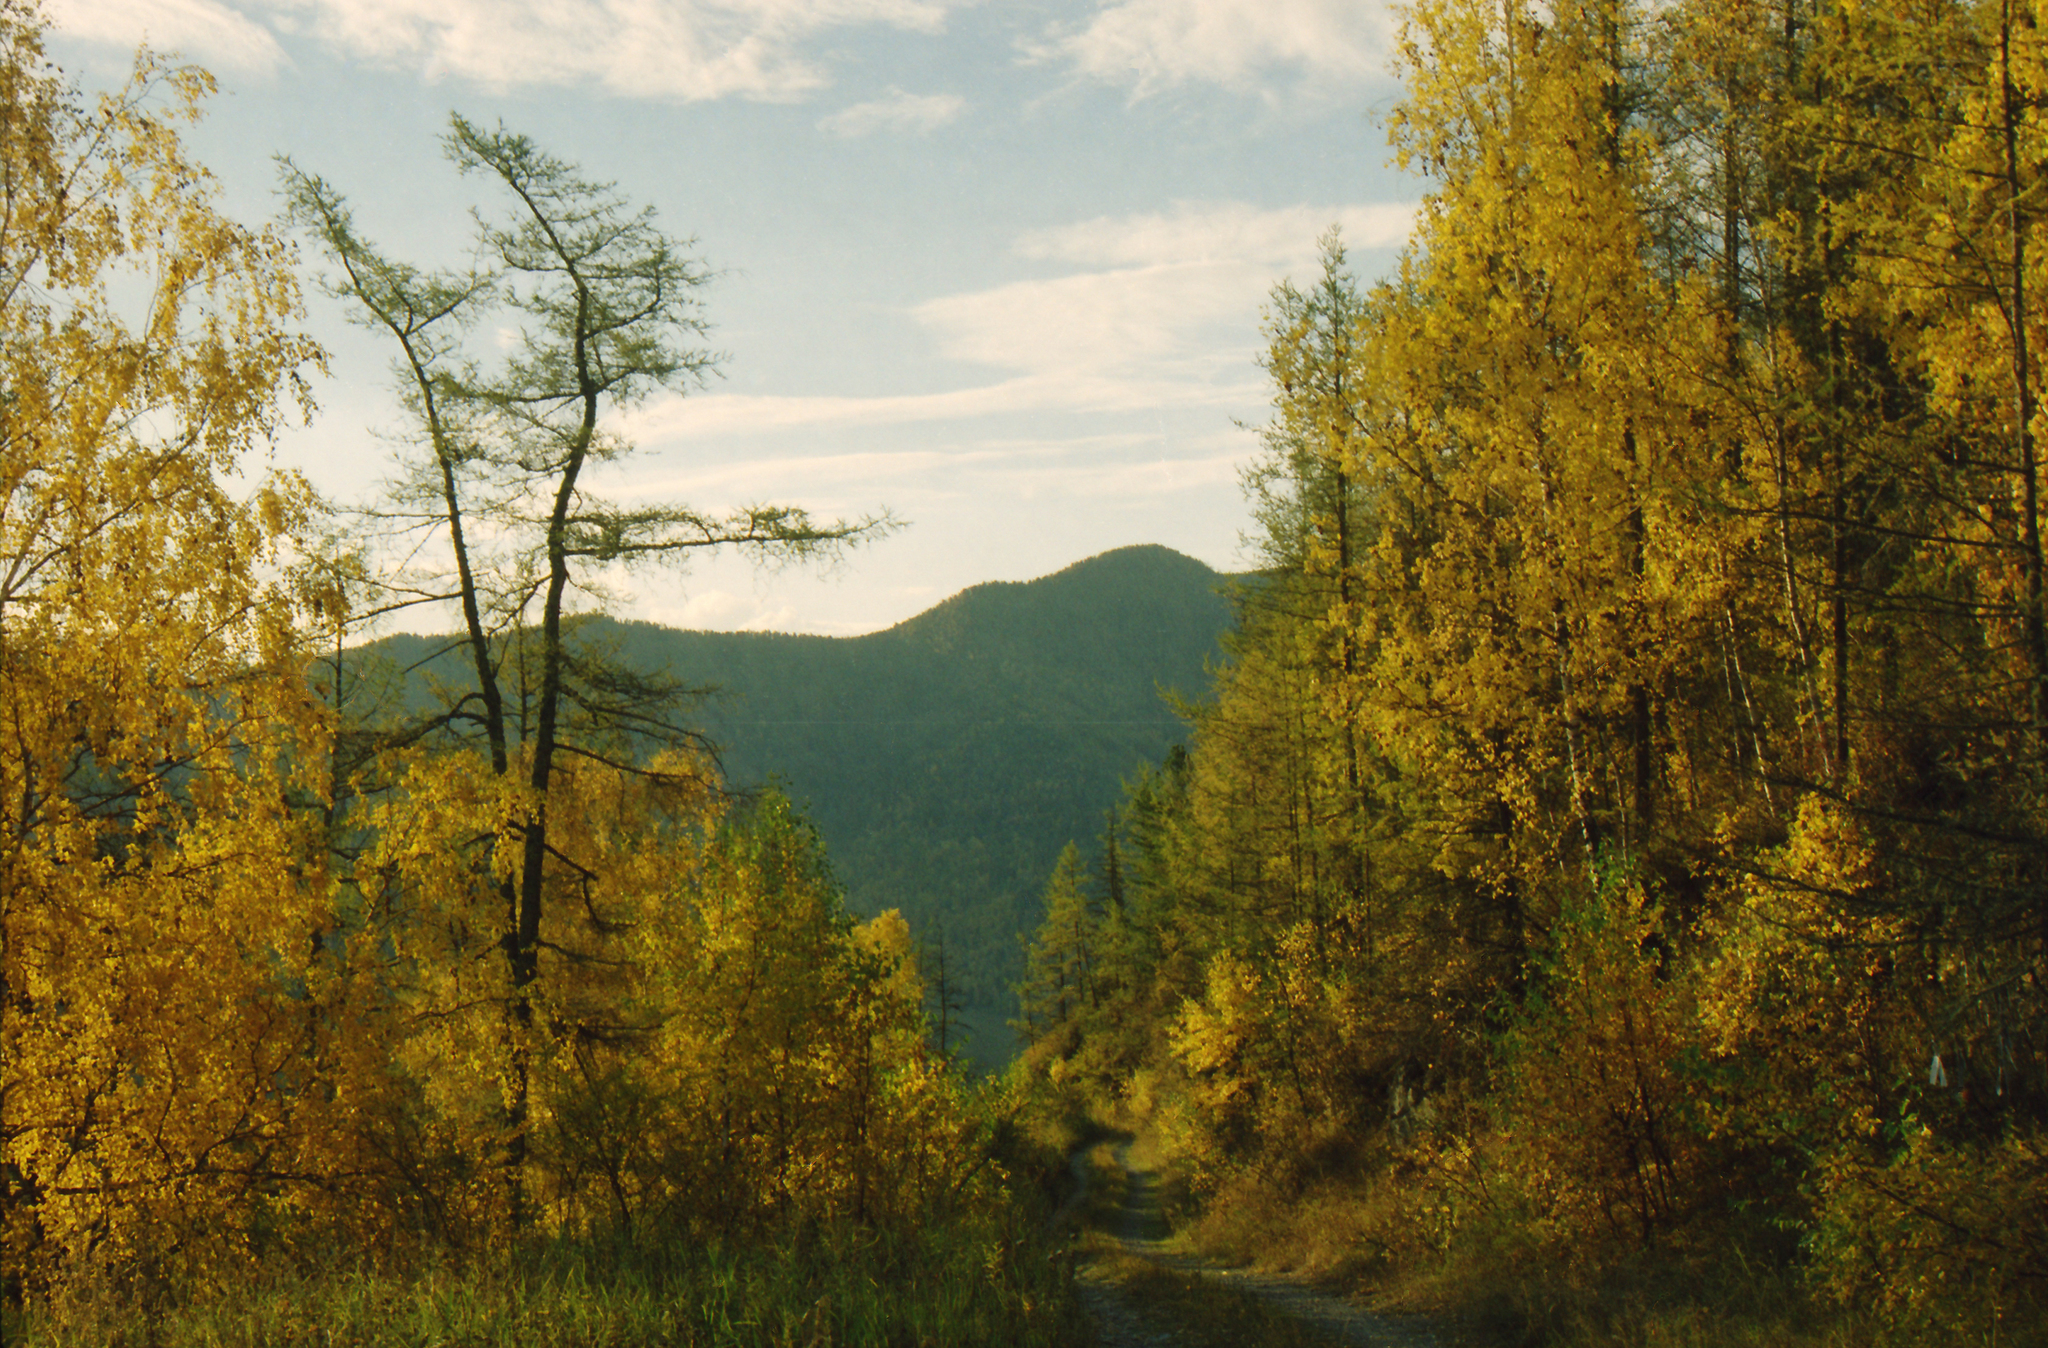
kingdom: Plantae
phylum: Tracheophyta
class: Magnoliopsida
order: Fagales
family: Betulaceae
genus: Betula
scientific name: Betula pendula
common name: Silver birch
